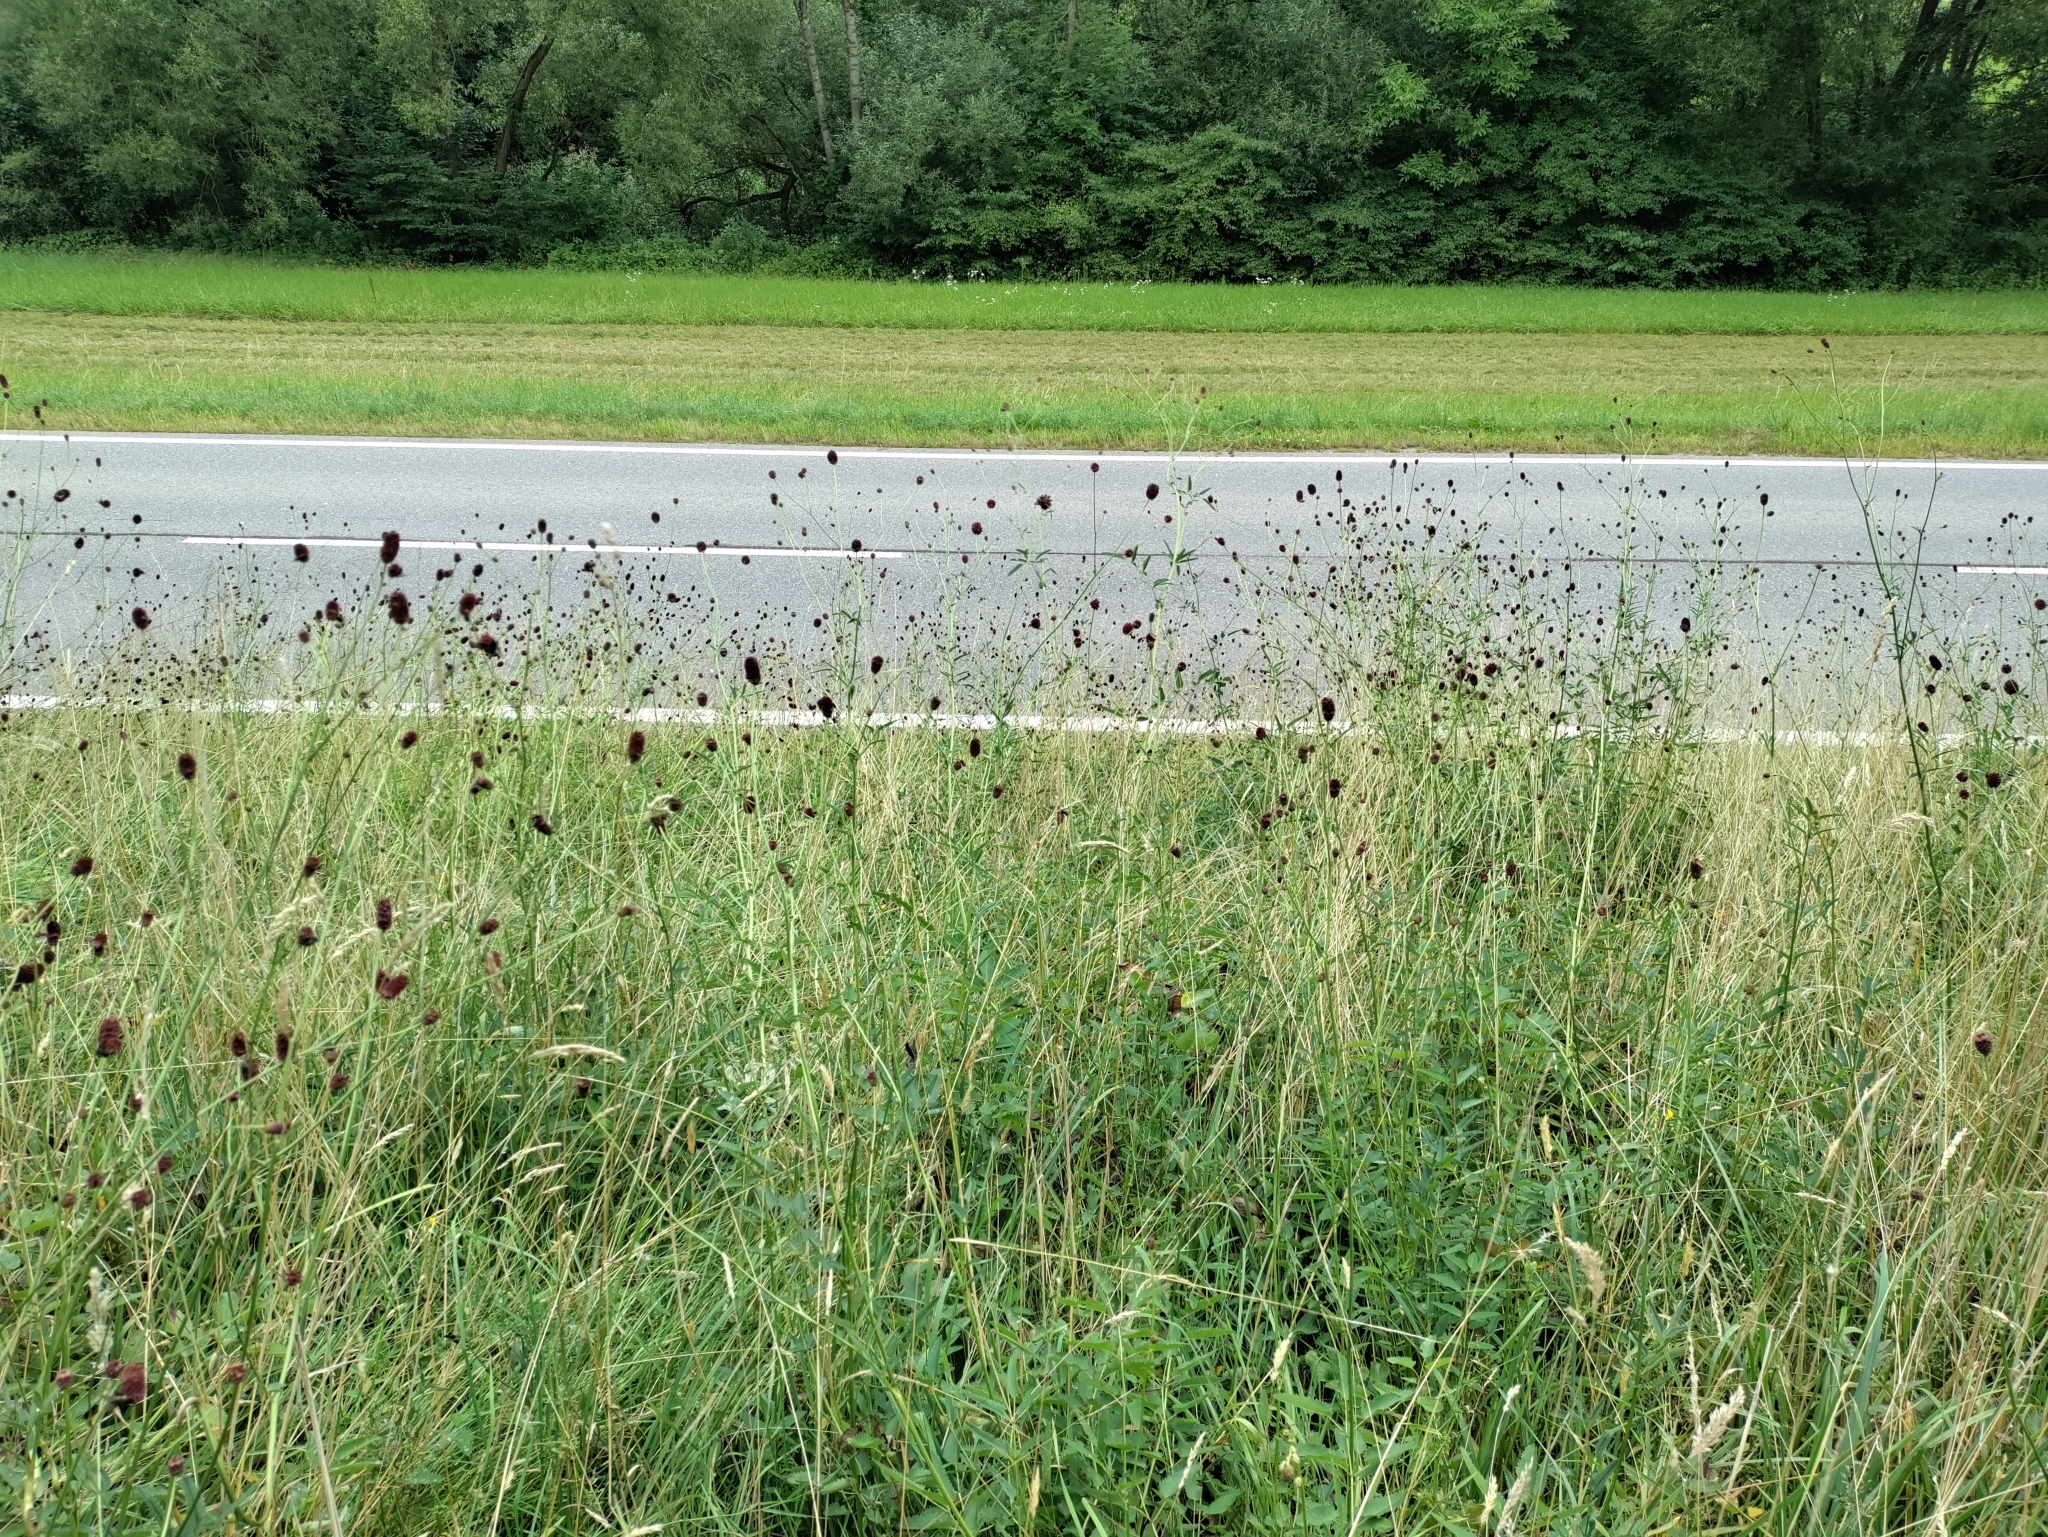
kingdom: Plantae
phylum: Tracheophyta
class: Magnoliopsida
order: Rosales
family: Rosaceae
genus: Sanguisorba
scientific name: Sanguisorba officinalis
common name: Great burnet
